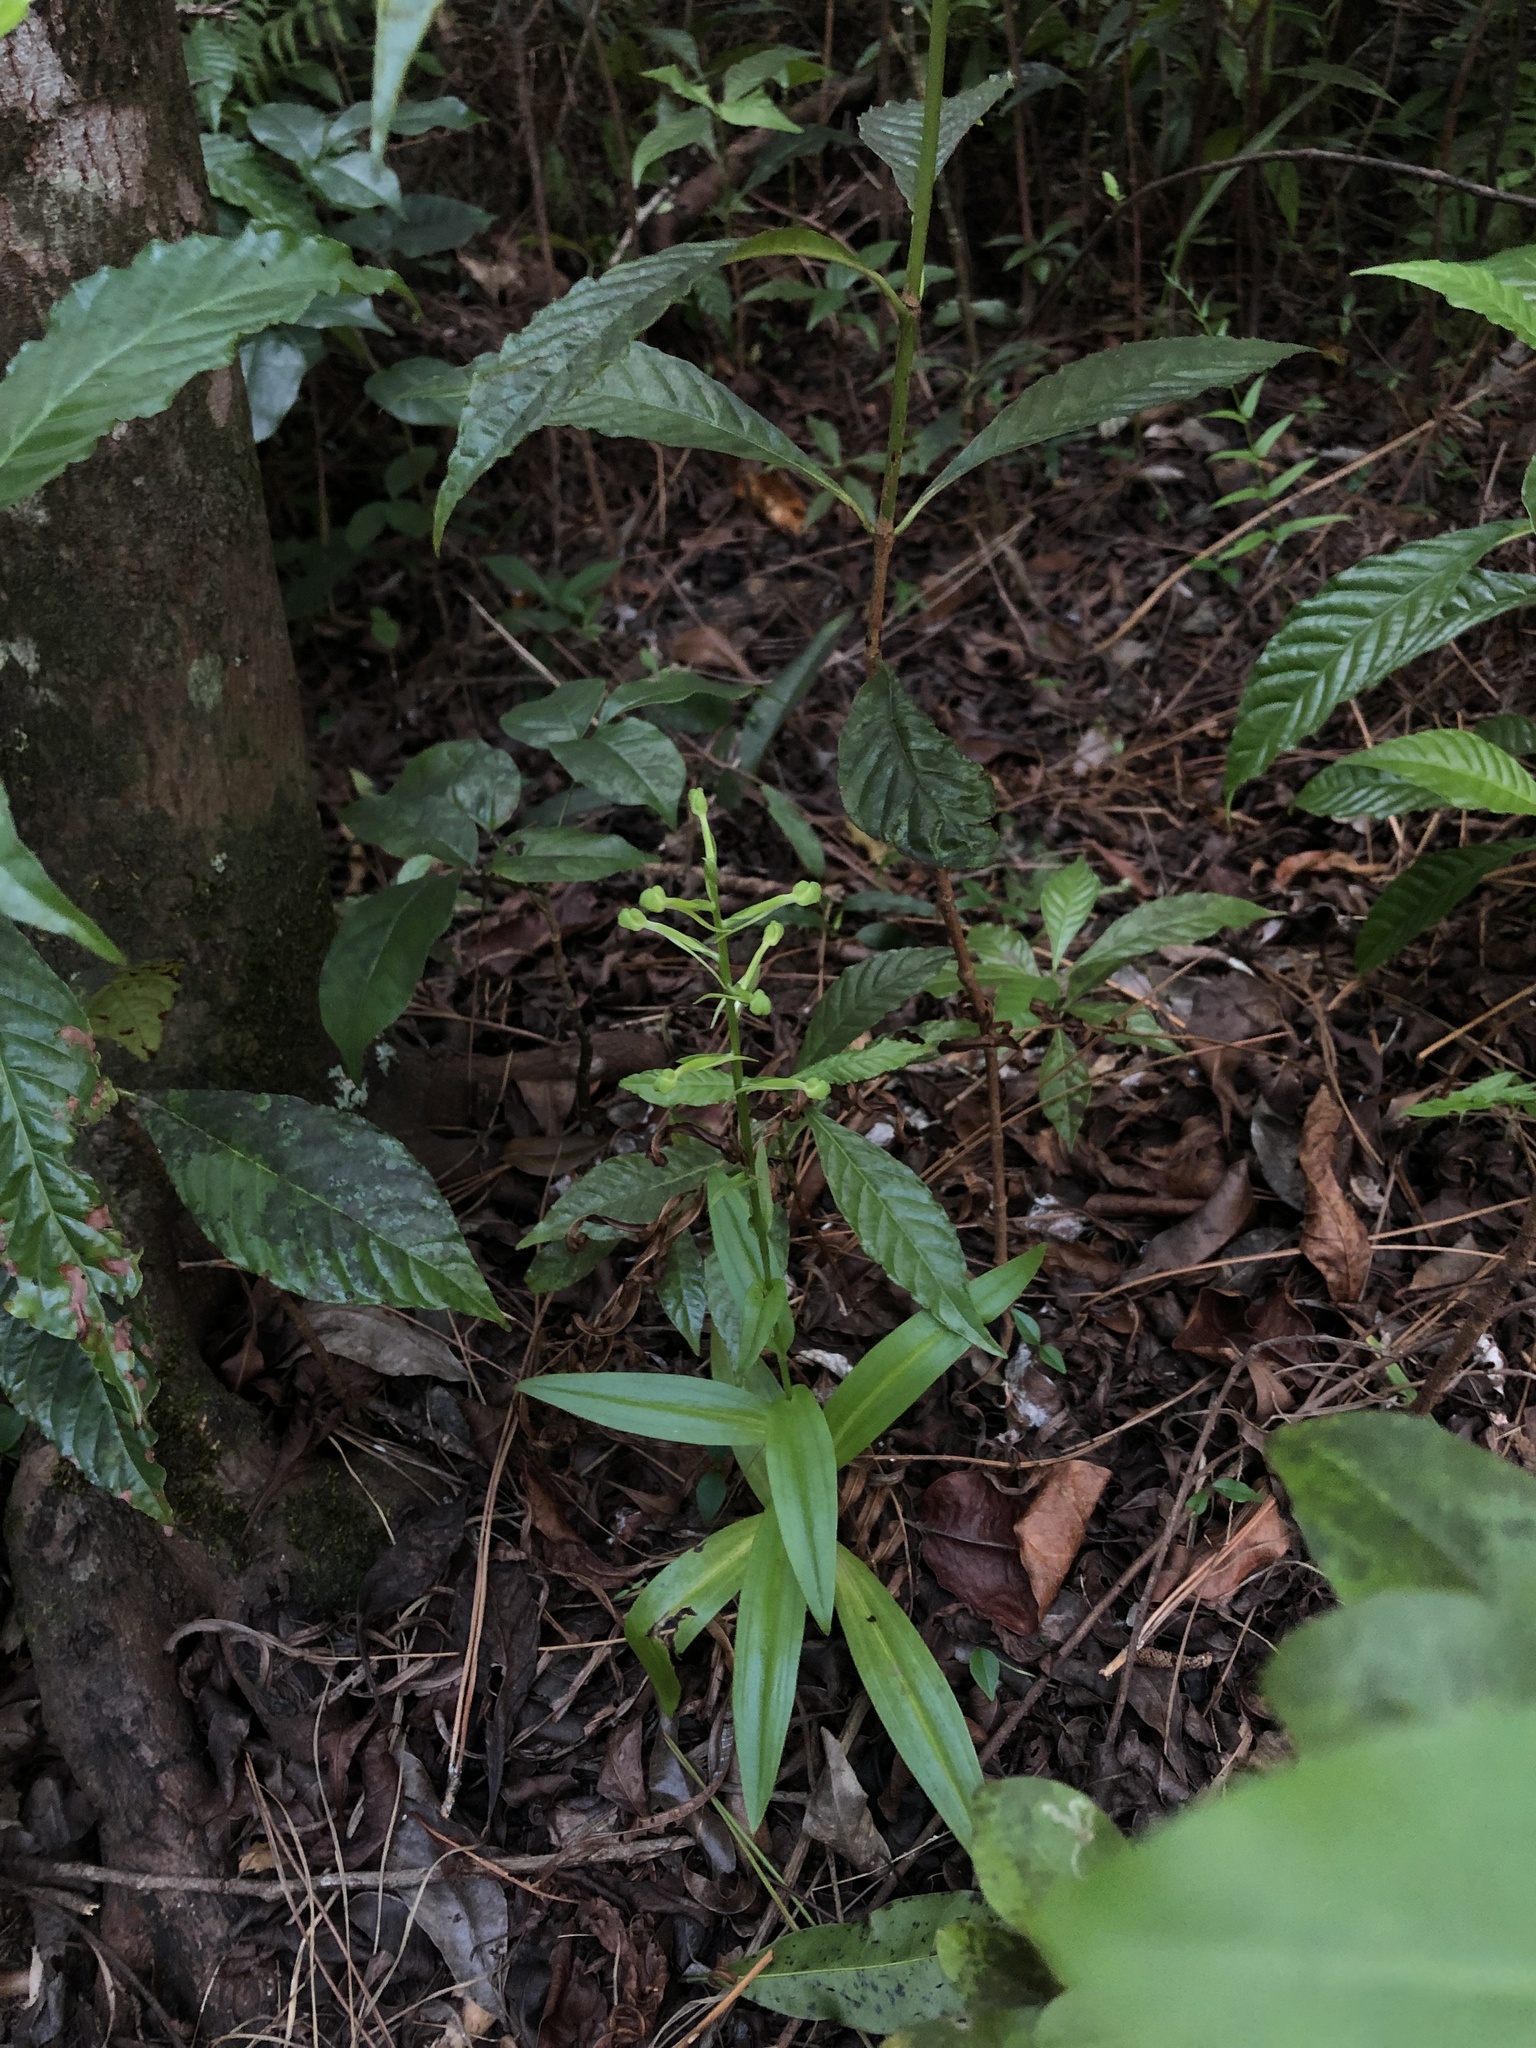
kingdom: Plantae
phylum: Tracheophyta
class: Liliopsida
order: Asparagales
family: Orchidaceae
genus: Habenaria
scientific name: Habenaria floribunda
